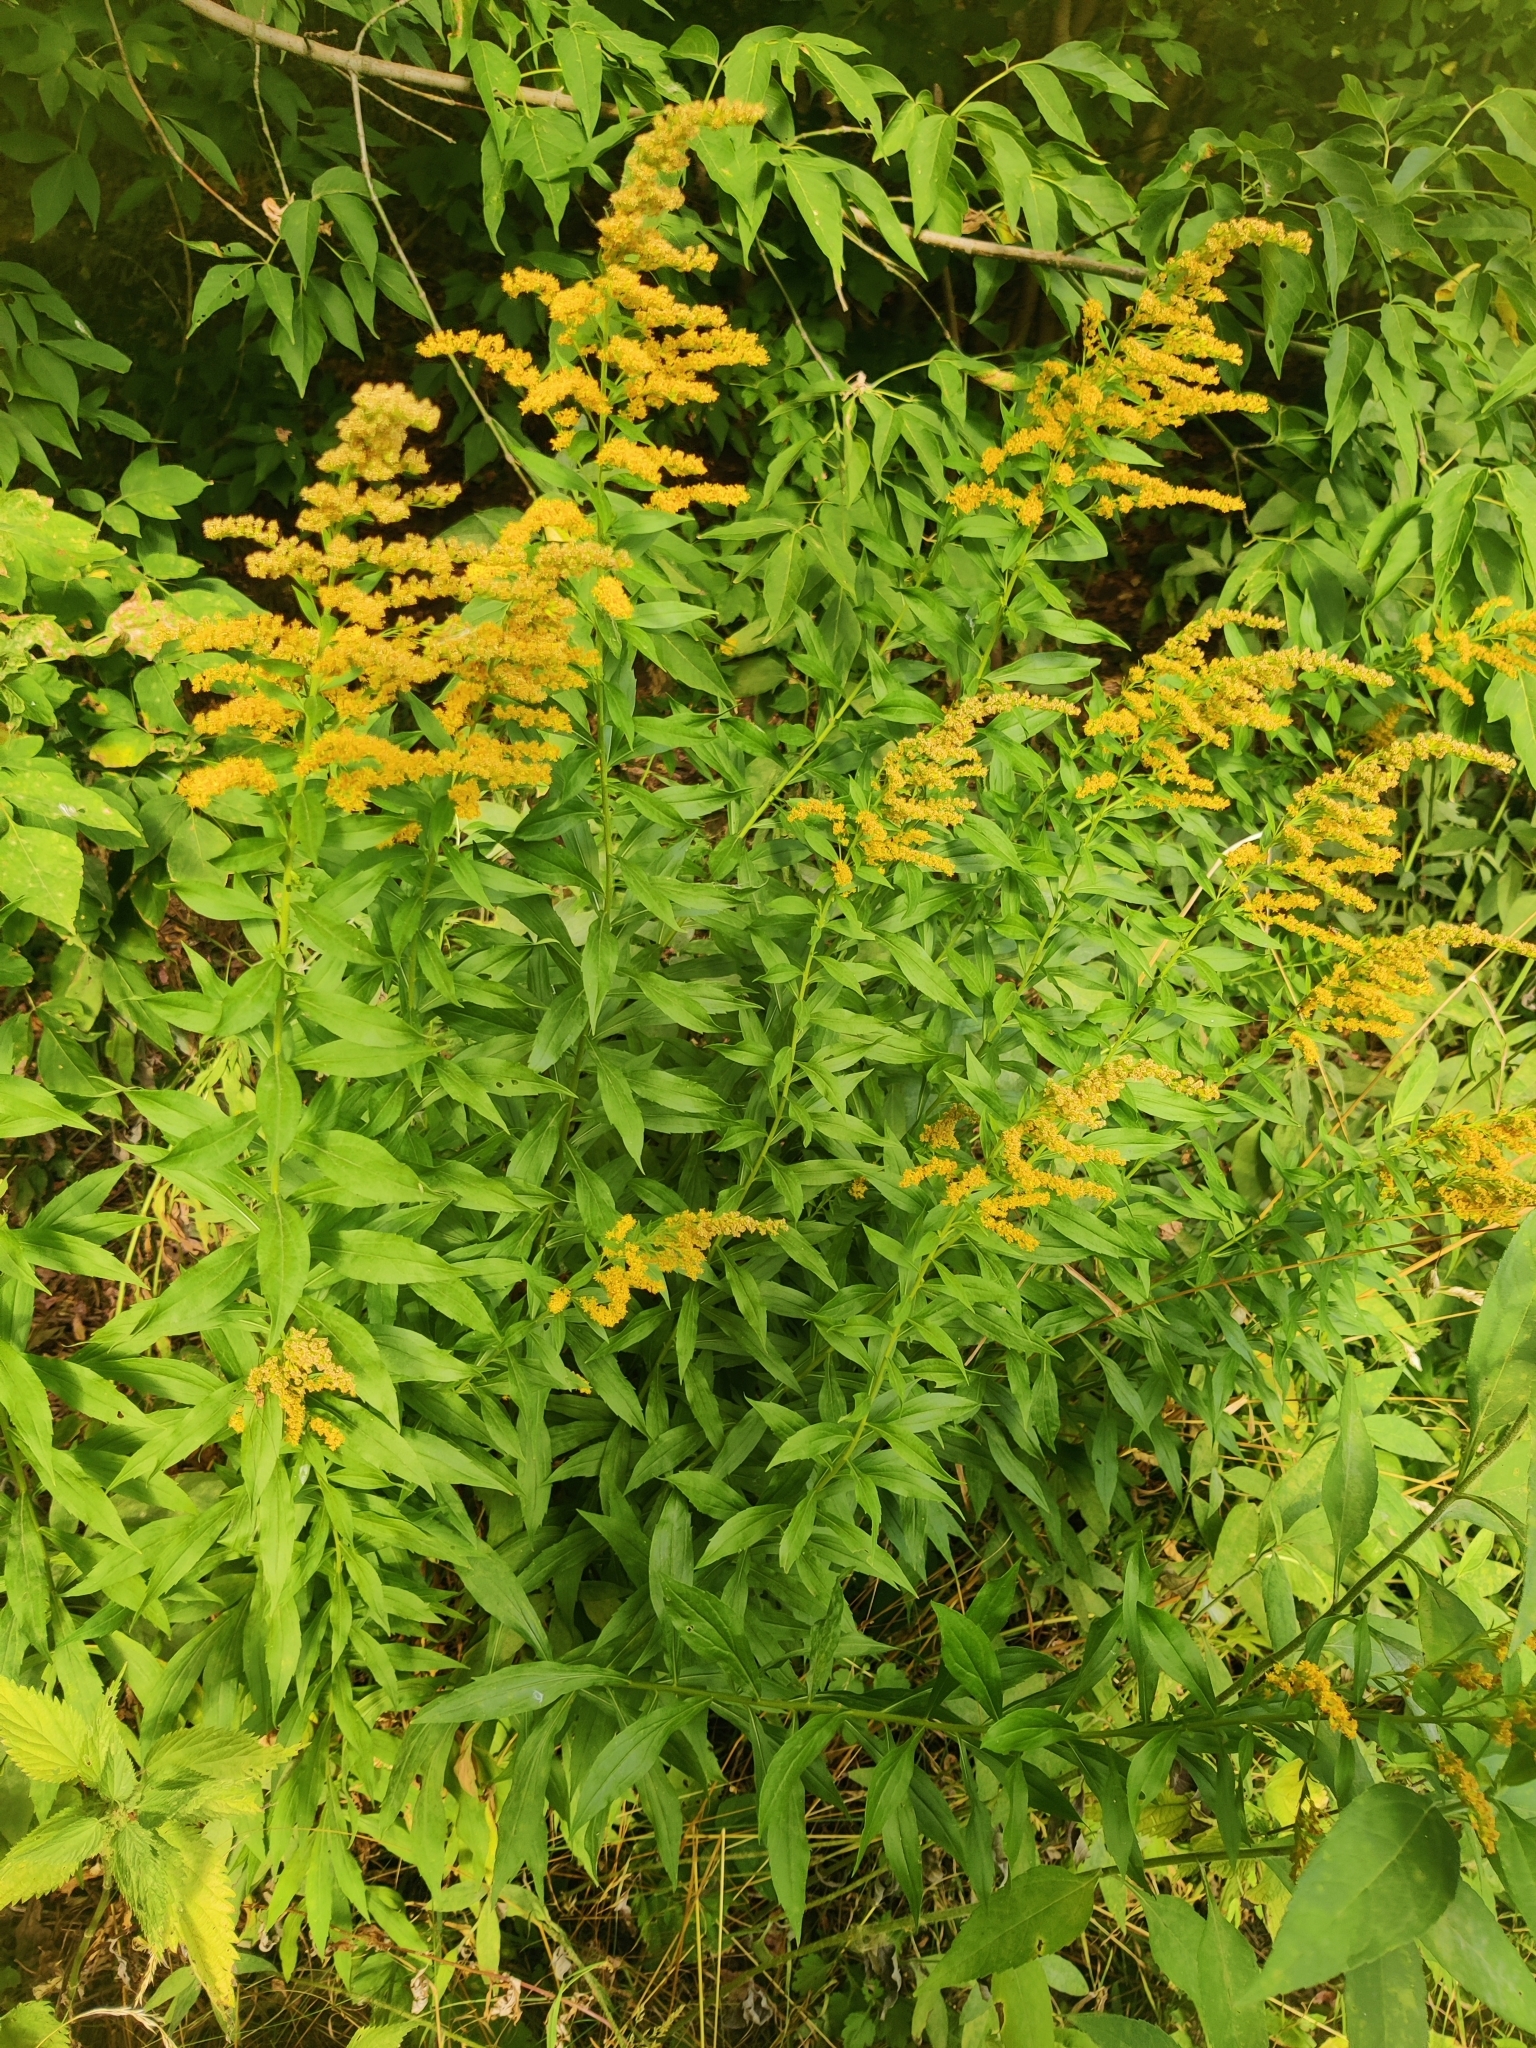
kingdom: Plantae
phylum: Tracheophyta
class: Magnoliopsida
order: Asterales
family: Asteraceae
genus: Solidago
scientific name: Solidago canadensis
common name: Canada goldenrod
